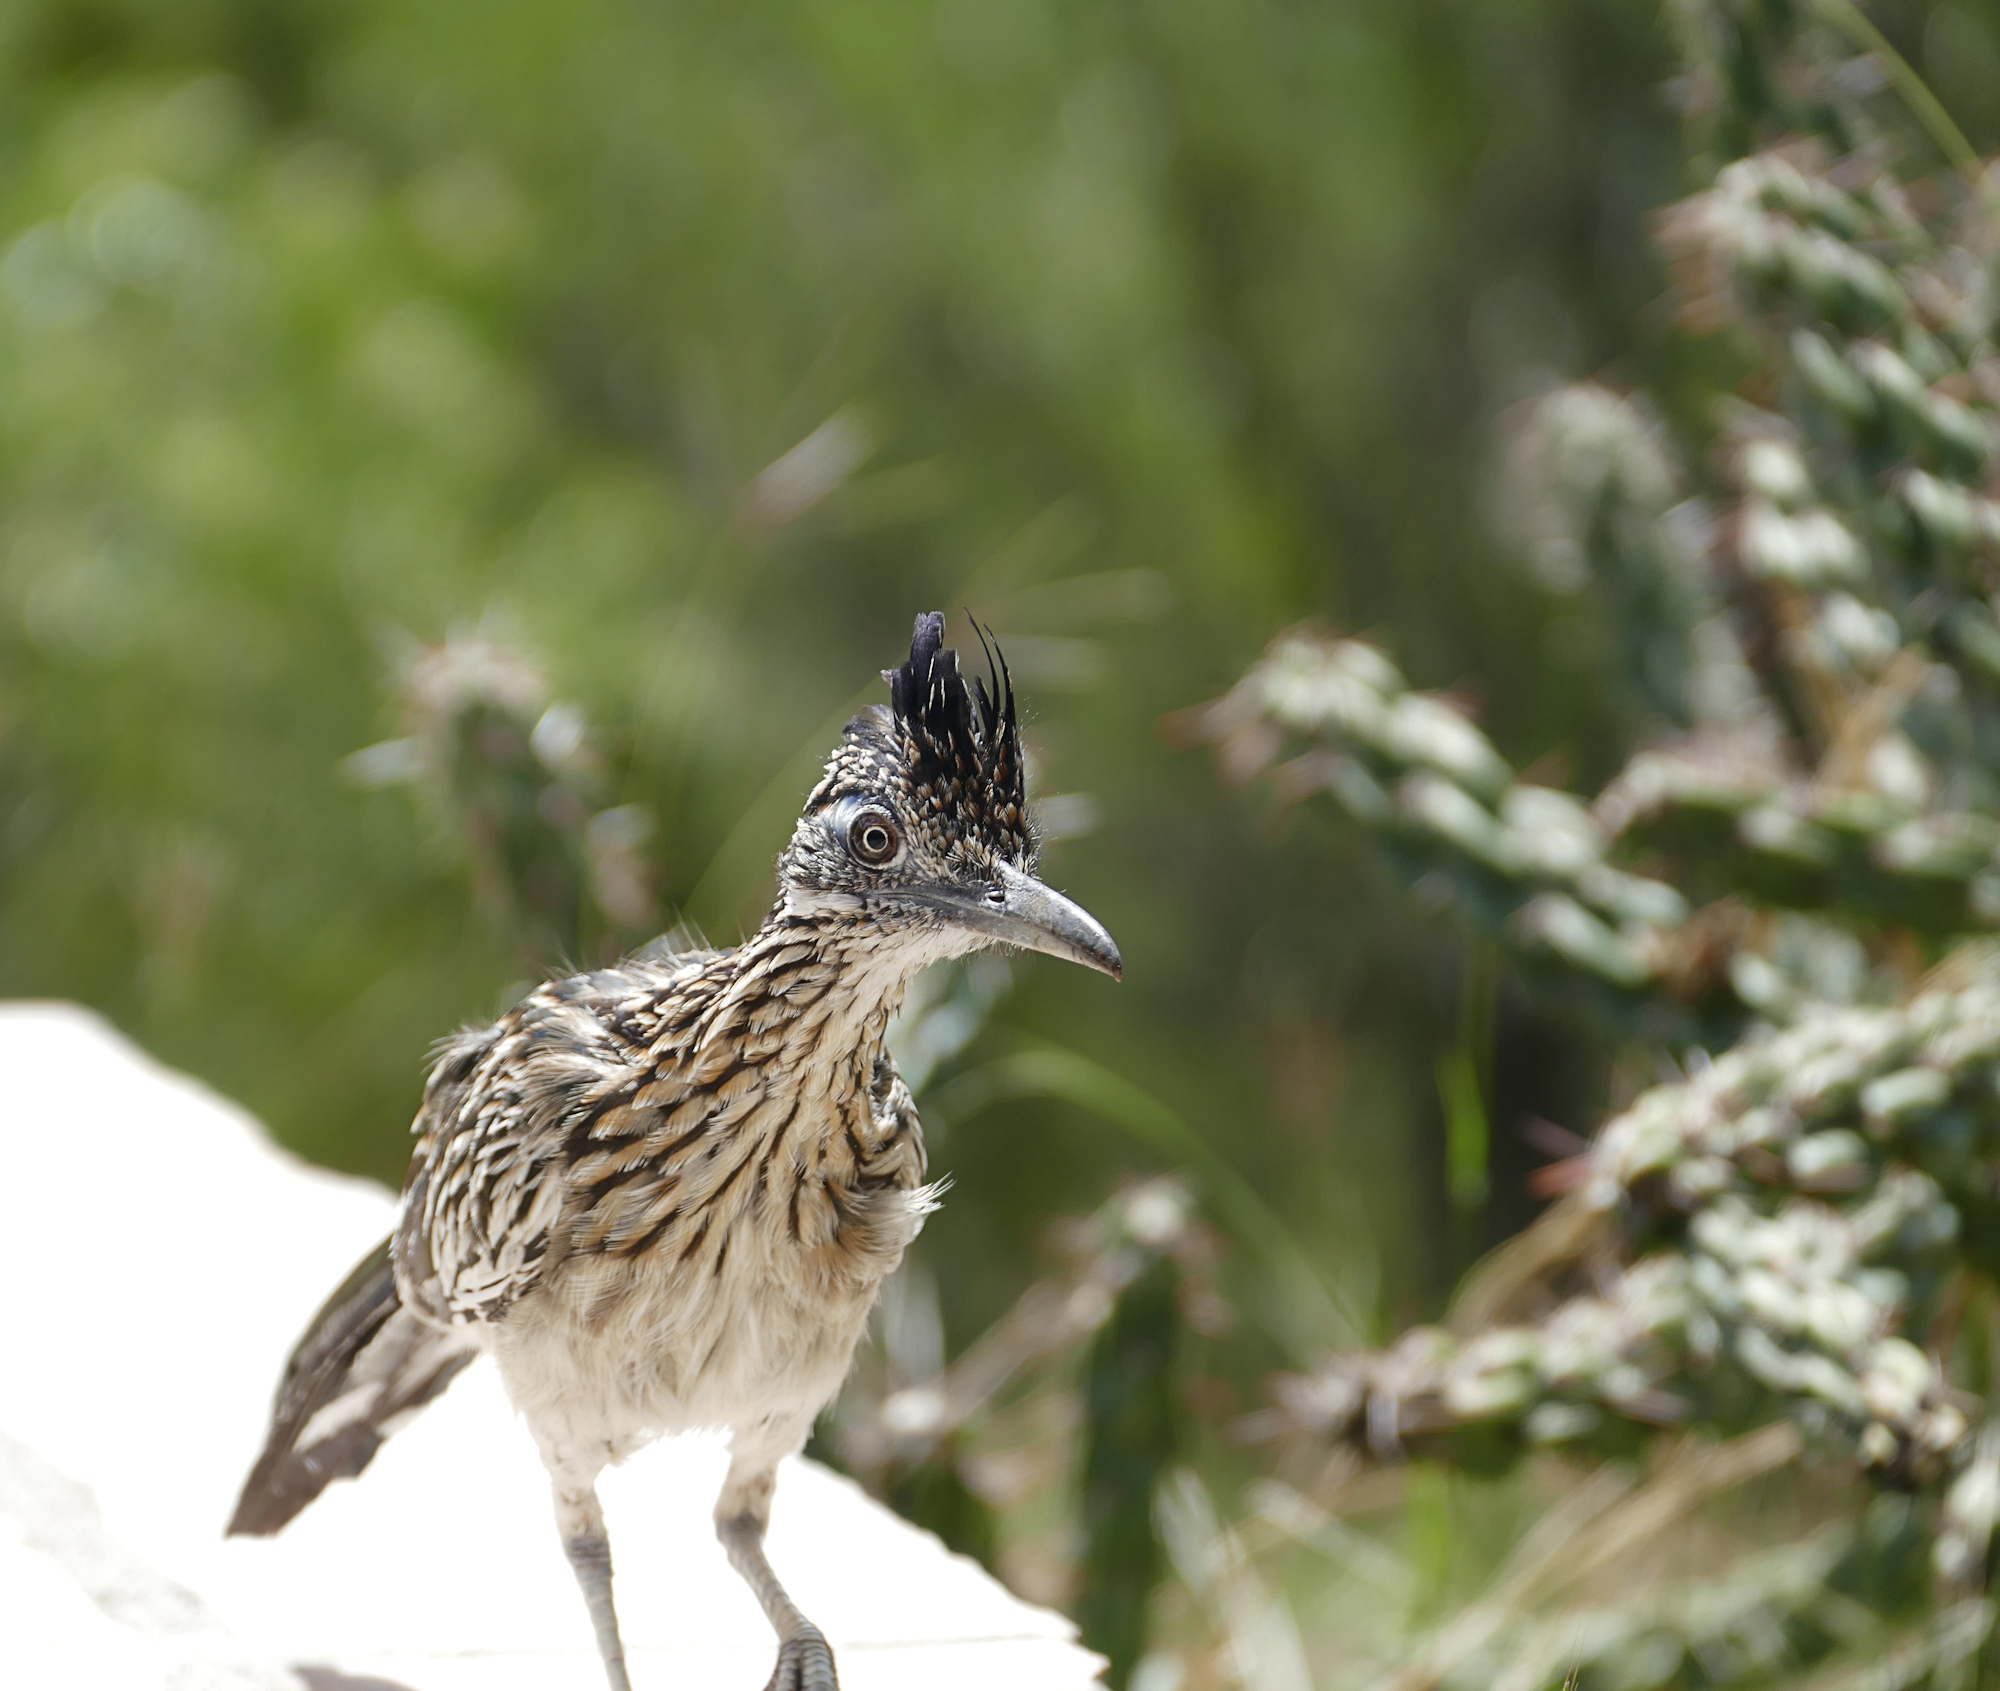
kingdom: Animalia
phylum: Chordata
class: Aves
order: Cuculiformes
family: Cuculidae
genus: Geococcyx
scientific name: Geococcyx californianus
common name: Greater roadrunner
